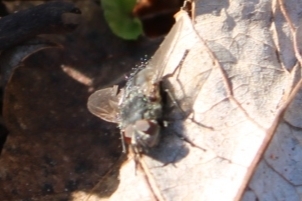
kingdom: Animalia
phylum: Arthropoda
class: Insecta
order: Diptera
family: Polleniidae
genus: Pollenia
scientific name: Pollenia
